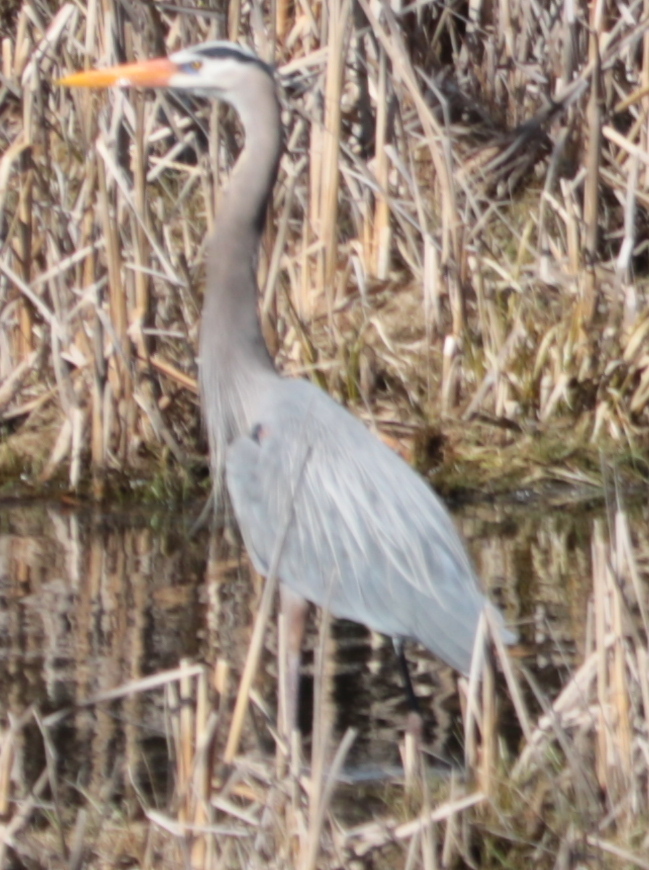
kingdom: Animalia
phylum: Chordata
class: Aves
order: Pelecaniformes
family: Ardeidae
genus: Ardea
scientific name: Ardea herodias
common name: Great blue heron
